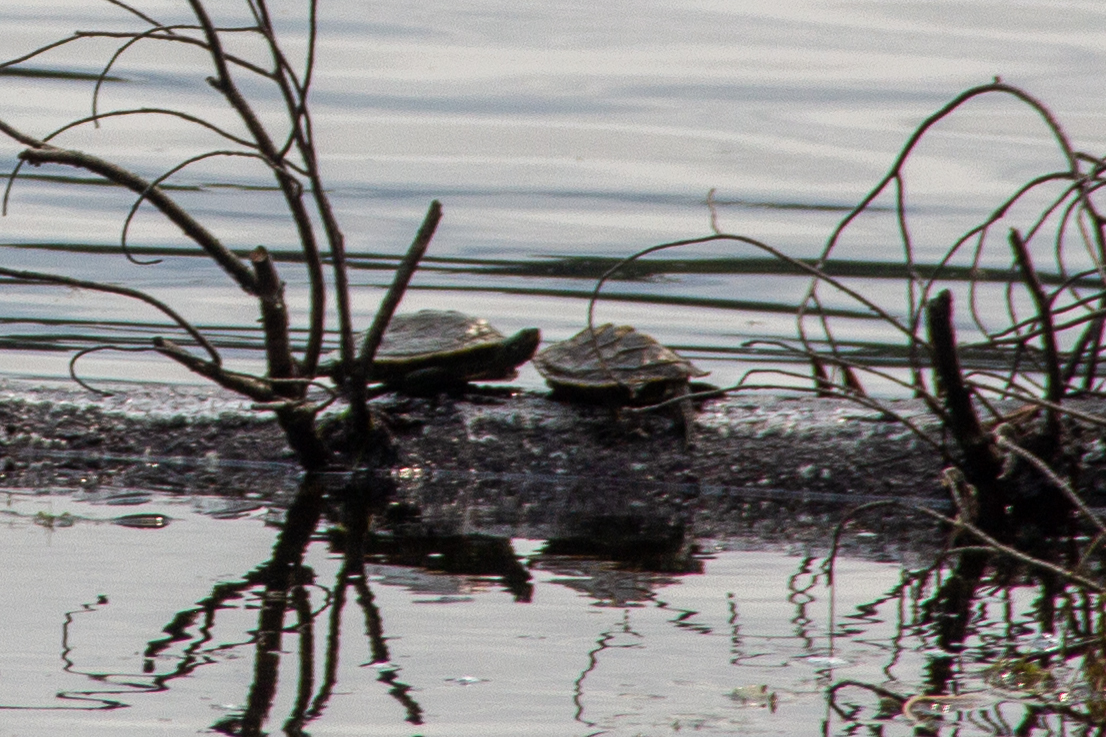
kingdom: Animalia
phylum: Chordata
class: Testudines
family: Emydidae
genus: Graptemys
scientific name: Graptemys geographica
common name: Common map turtle
